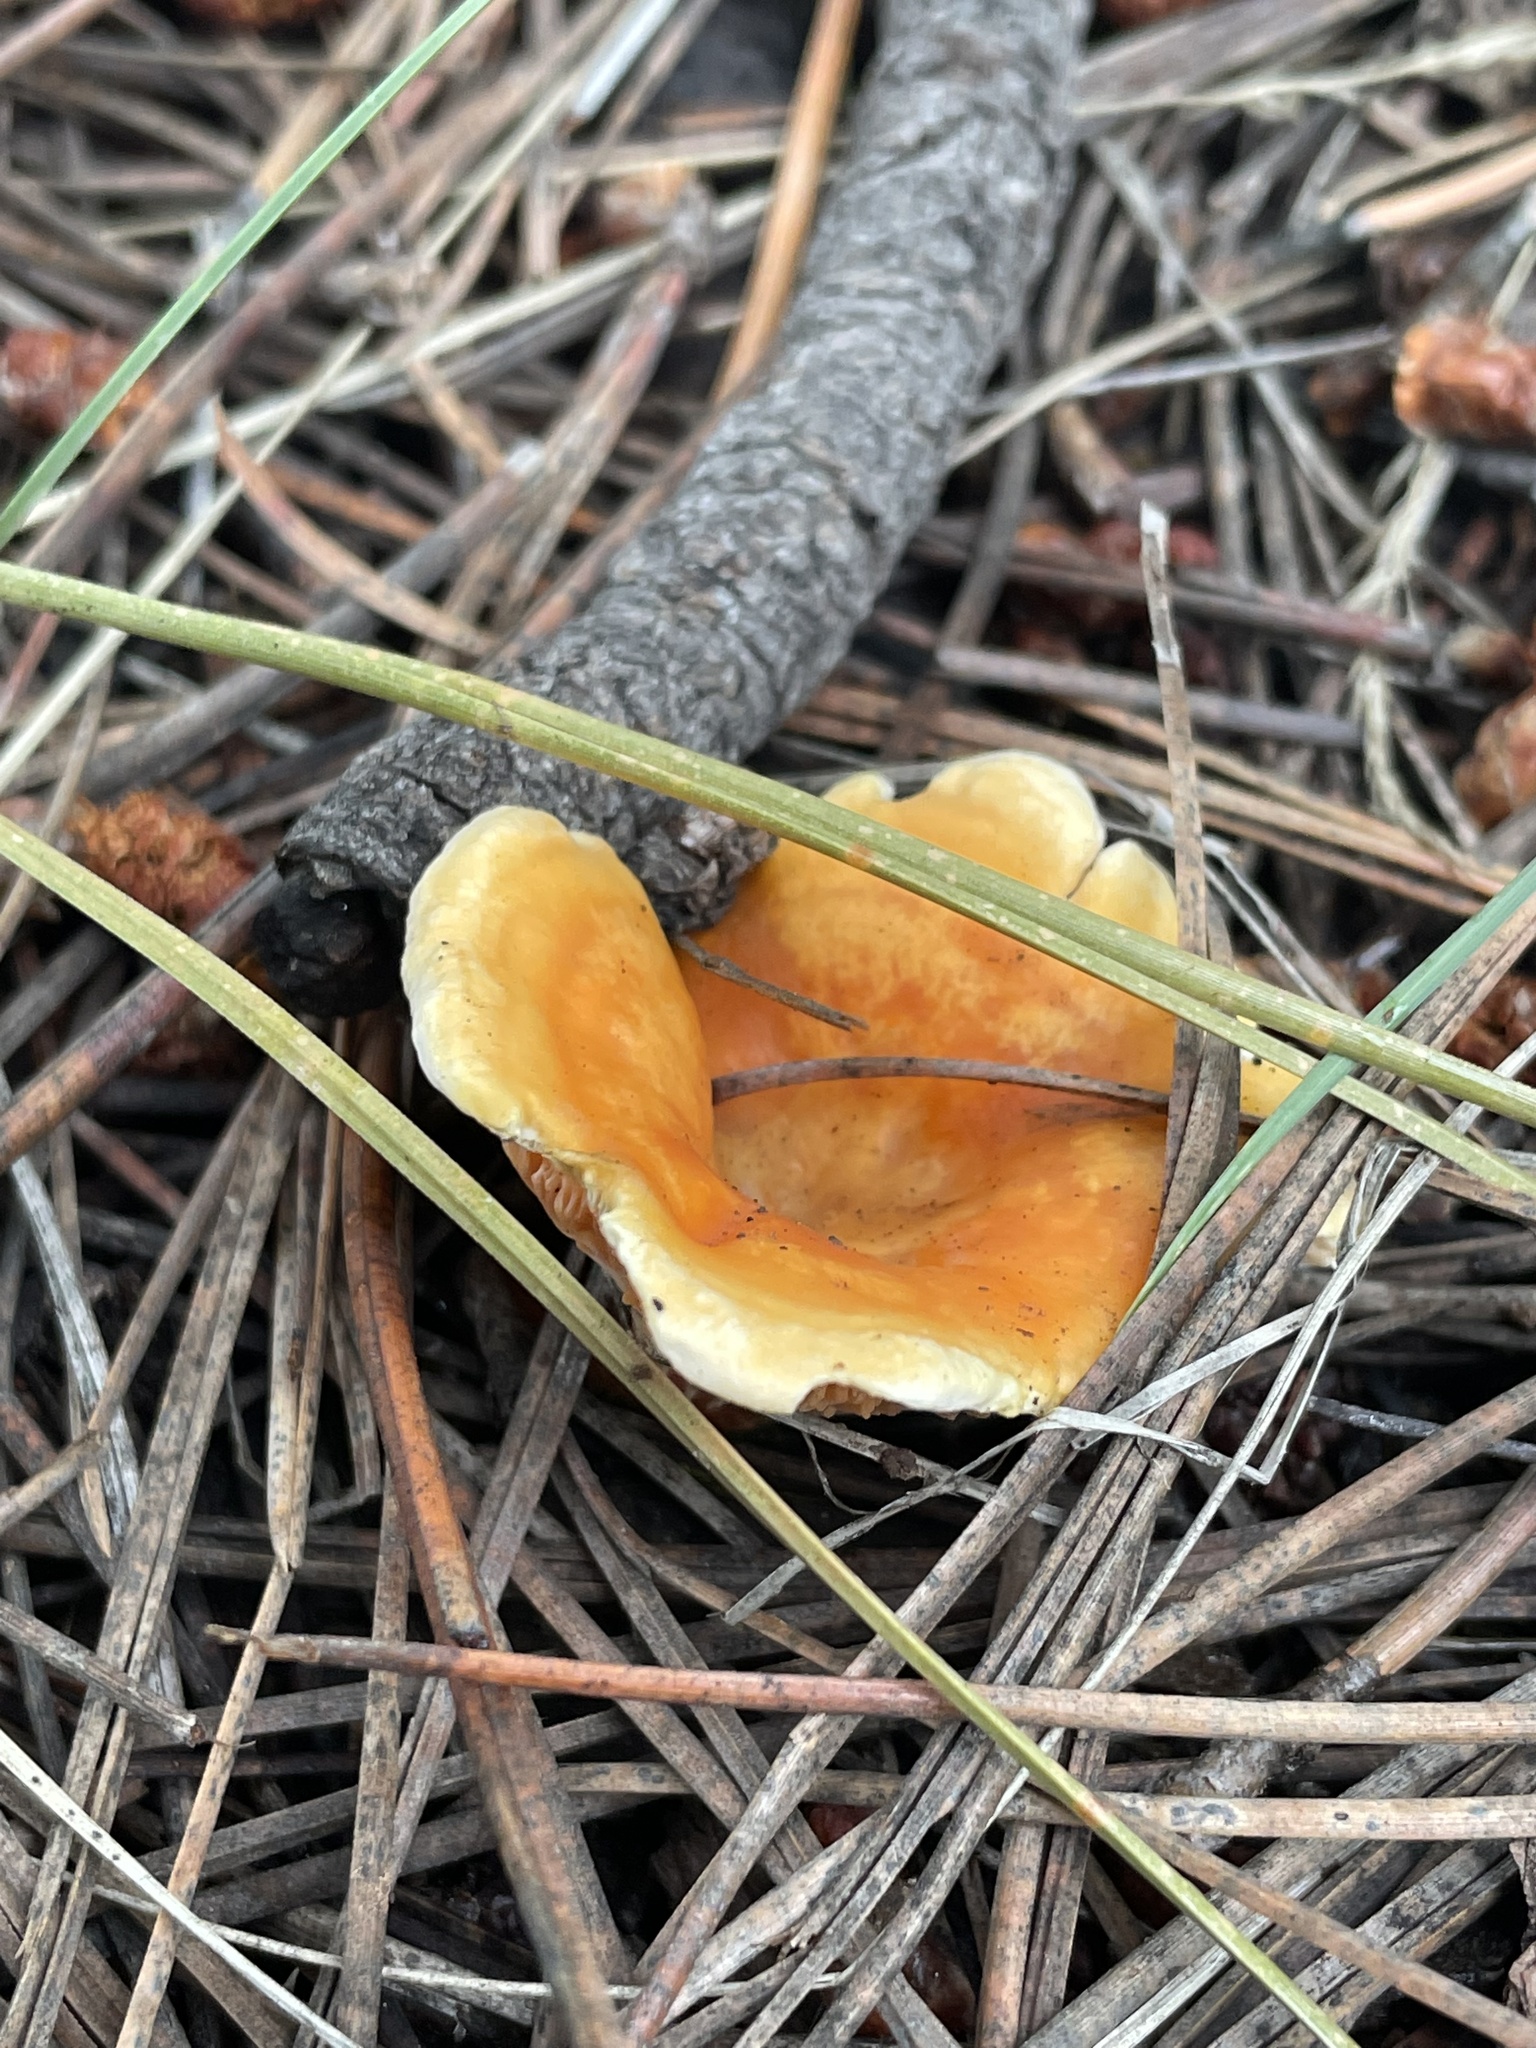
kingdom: Fungi
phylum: Basidiomycota
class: Agaricomycetes
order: Boletales
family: Hygrophoropsidaceae
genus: Hygrophoropsis
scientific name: Hygrophoropsis aurantiaca
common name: False chanterelle
